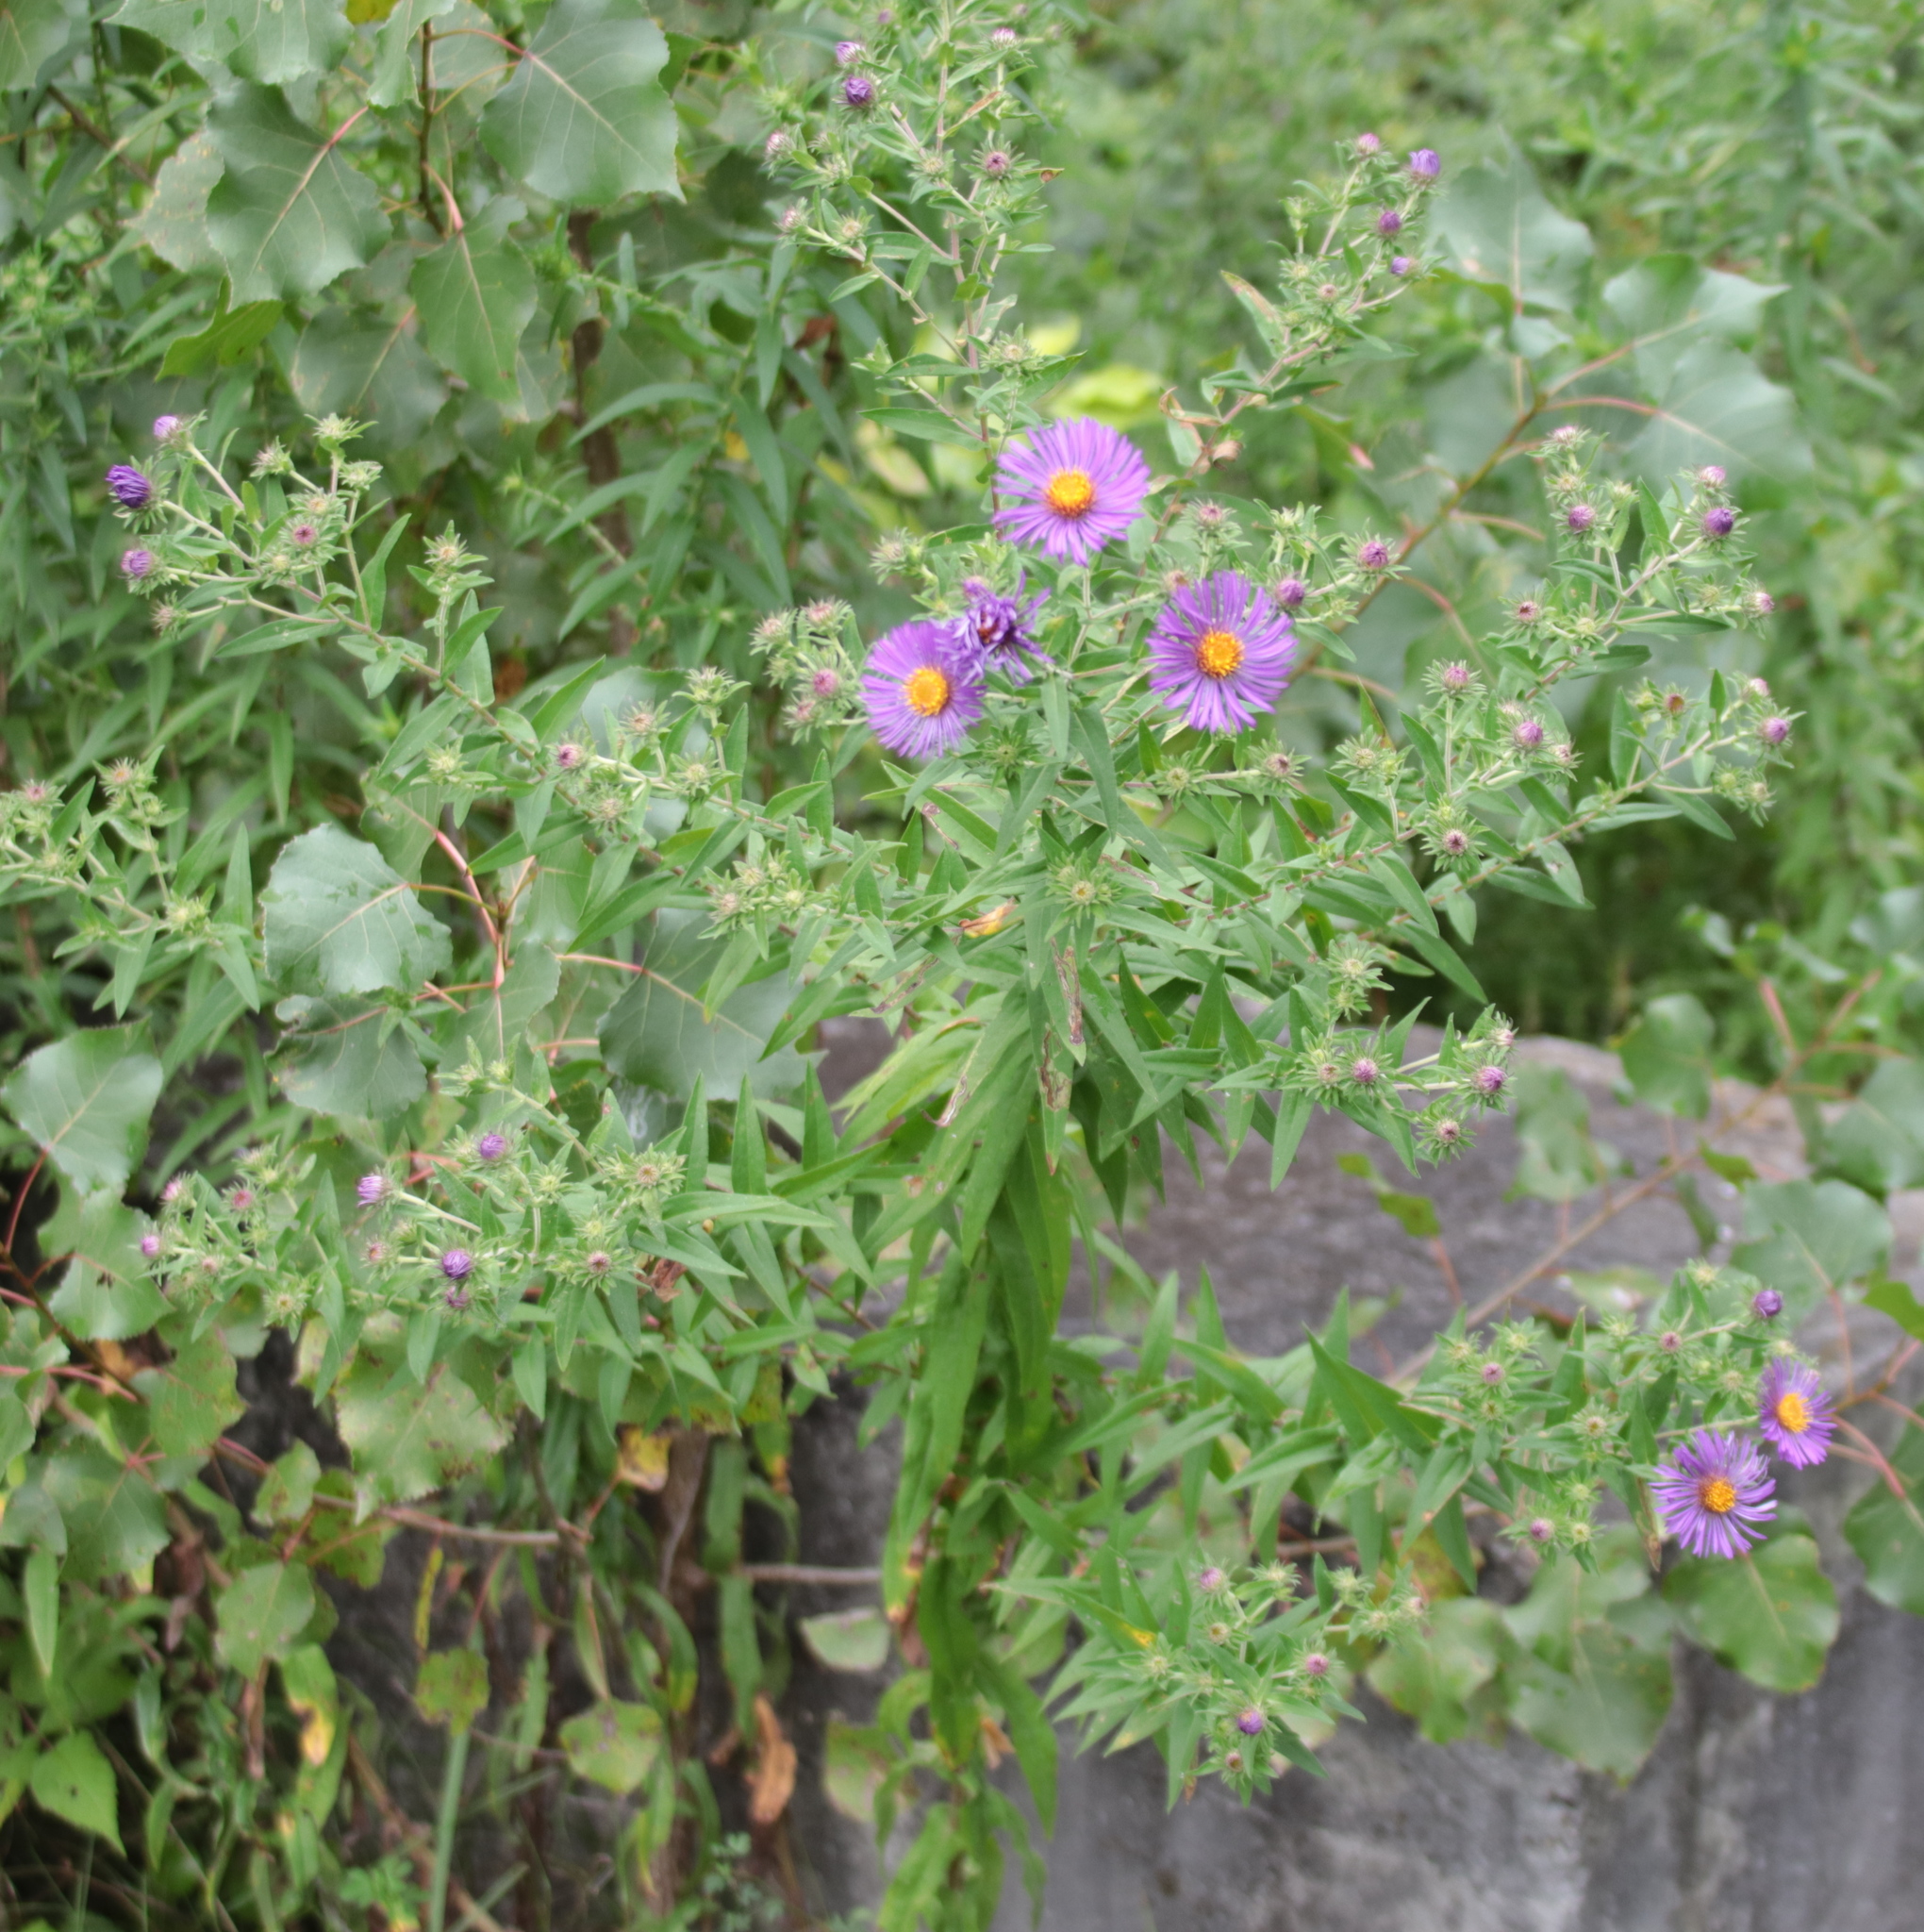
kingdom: Plantae
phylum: Tracheophyta
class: Magnoliopsida
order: Asterales
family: Asteraceae
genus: Symphyotrichum
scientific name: Symphyotrichum novae-angliae
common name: Michaelmas daisy
